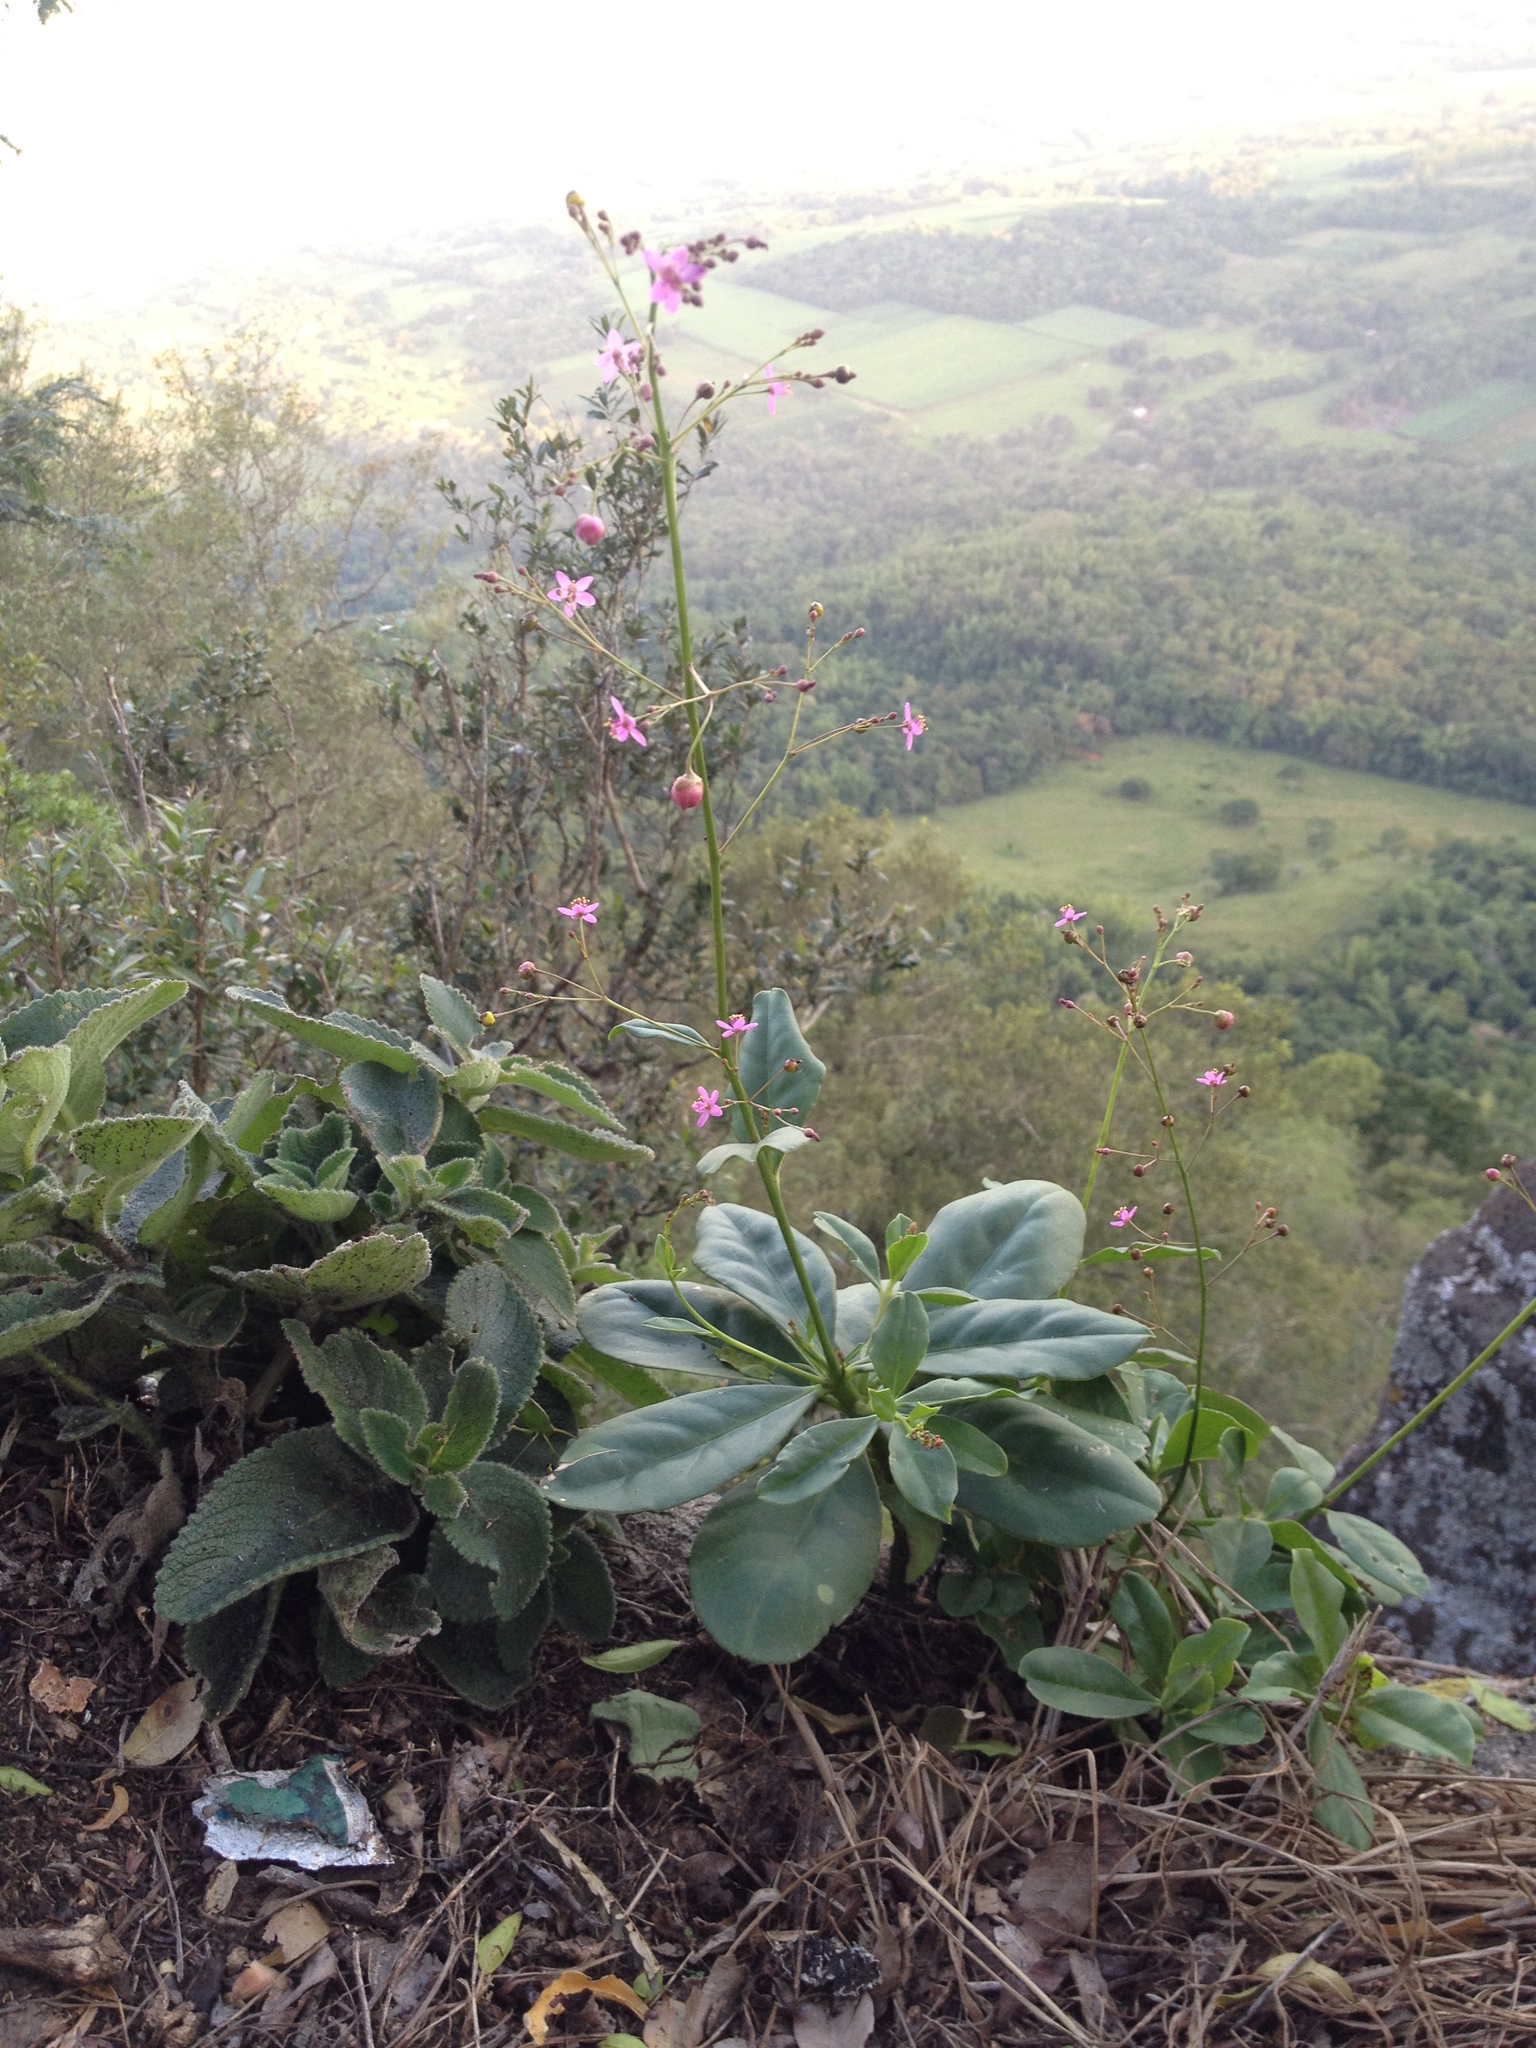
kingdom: Plantae
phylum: Tracheophyta
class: Magnoliopsida
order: Caryophyllales
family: Talinaceae
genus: Talinum
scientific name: Talinum paniculatum
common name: Jewels of opar
